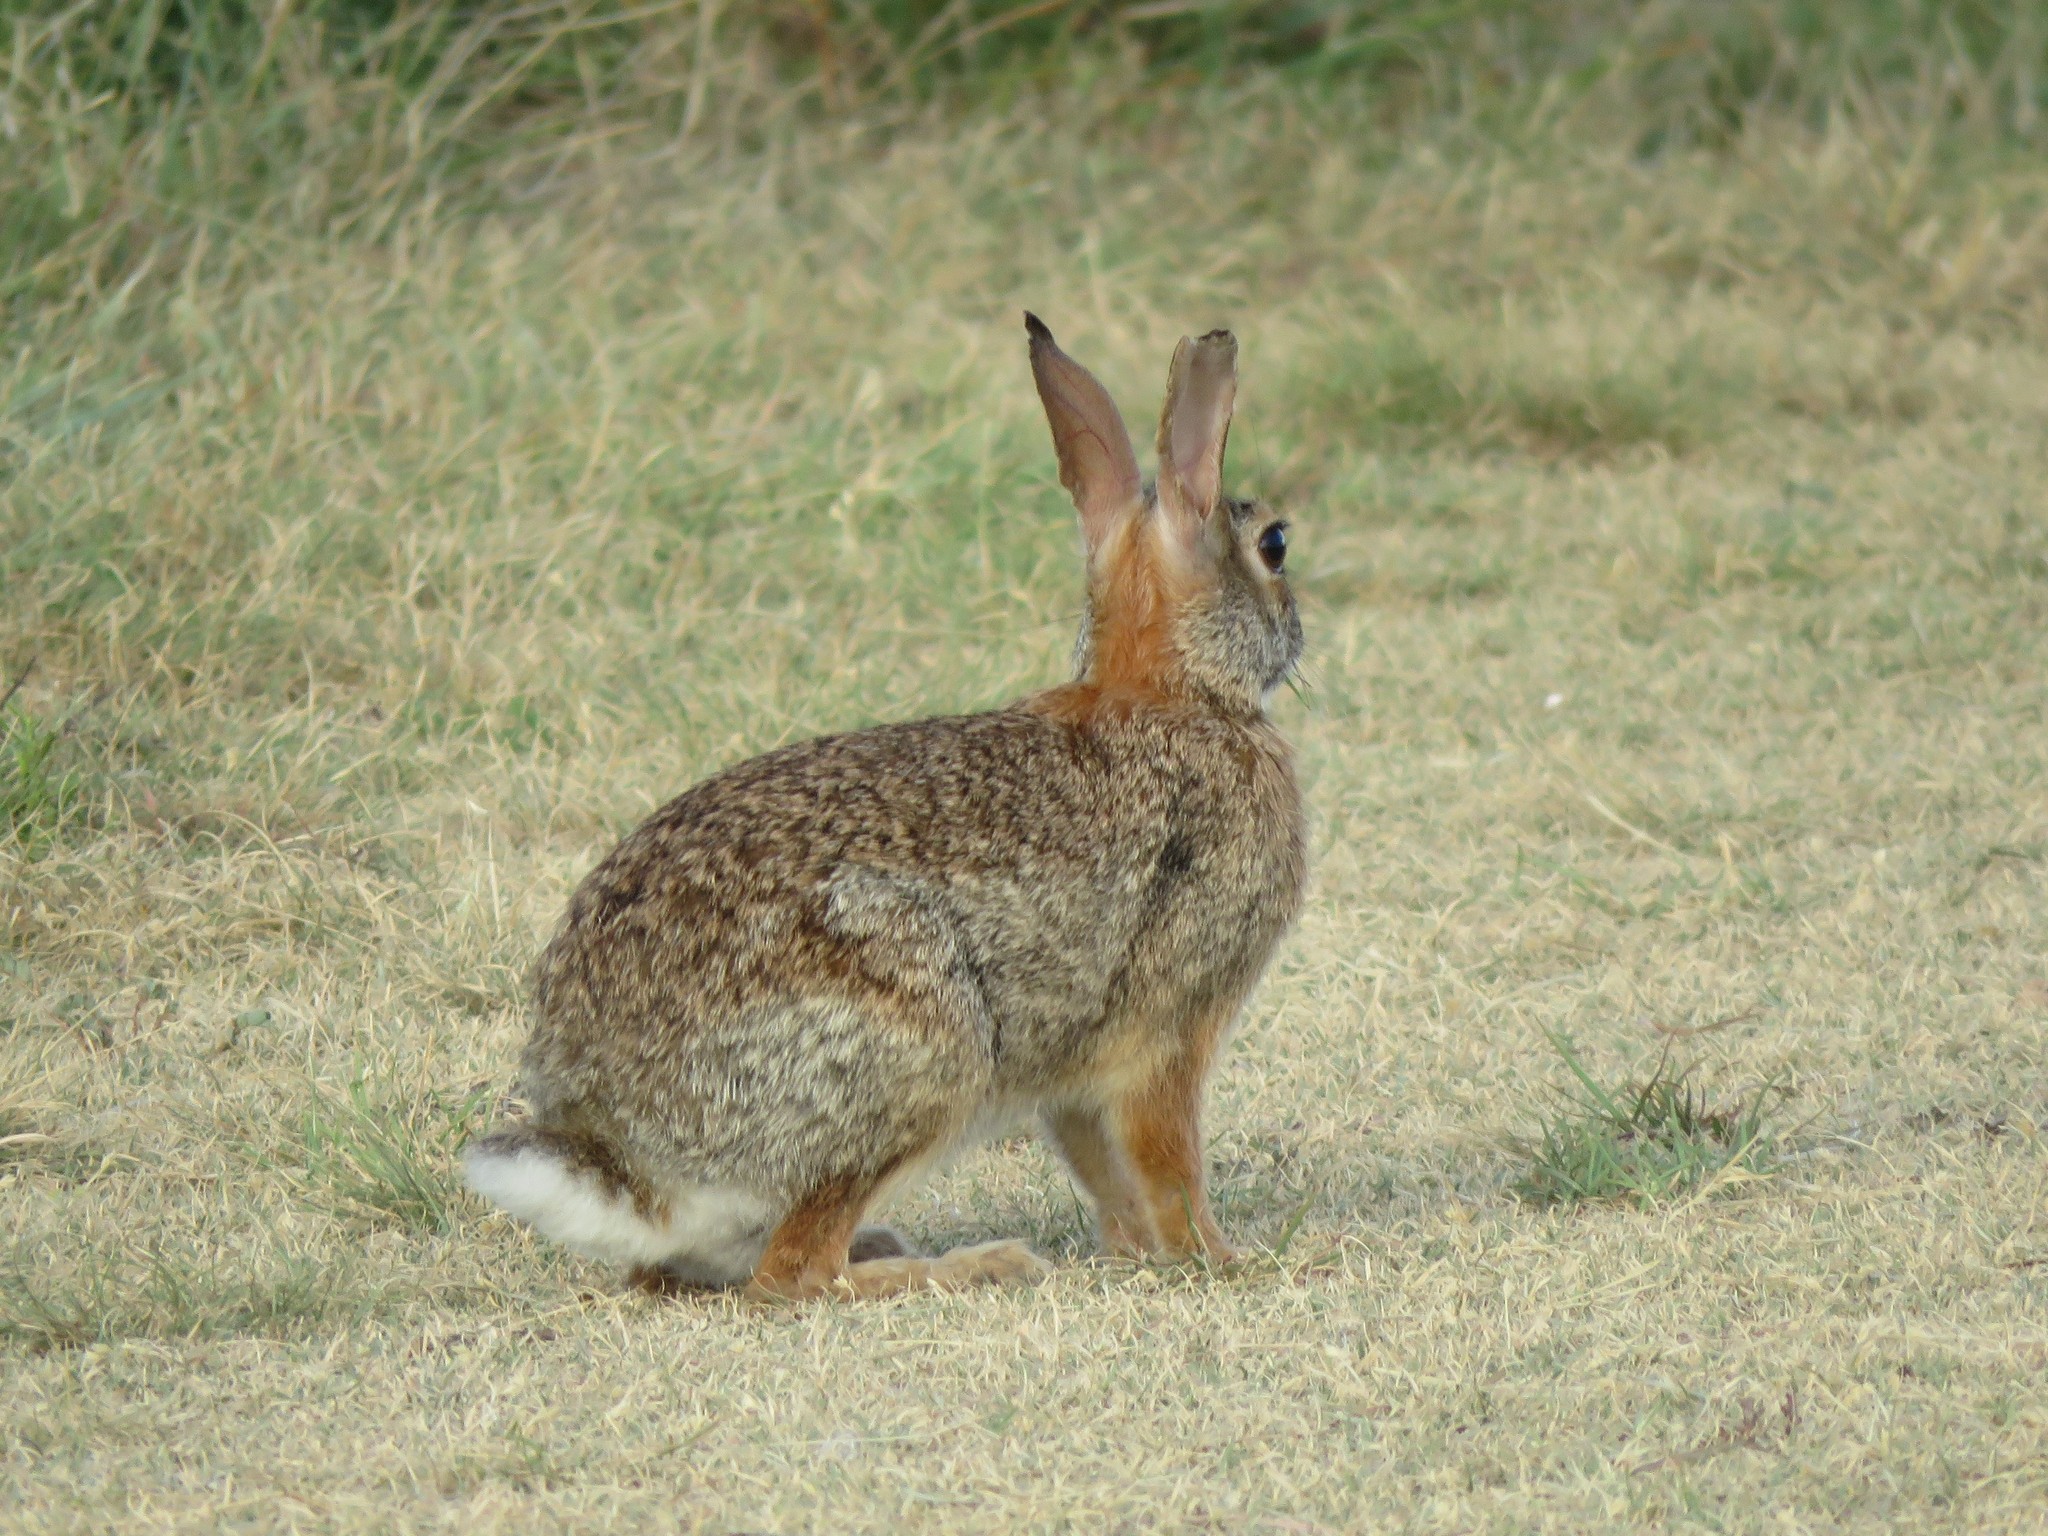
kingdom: Animalia
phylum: Chordata
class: Mammalia
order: Lagomorpha
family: Leporidae
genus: Sylvilagus
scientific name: Sylvilagus floridanus
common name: Eastern cottontail
